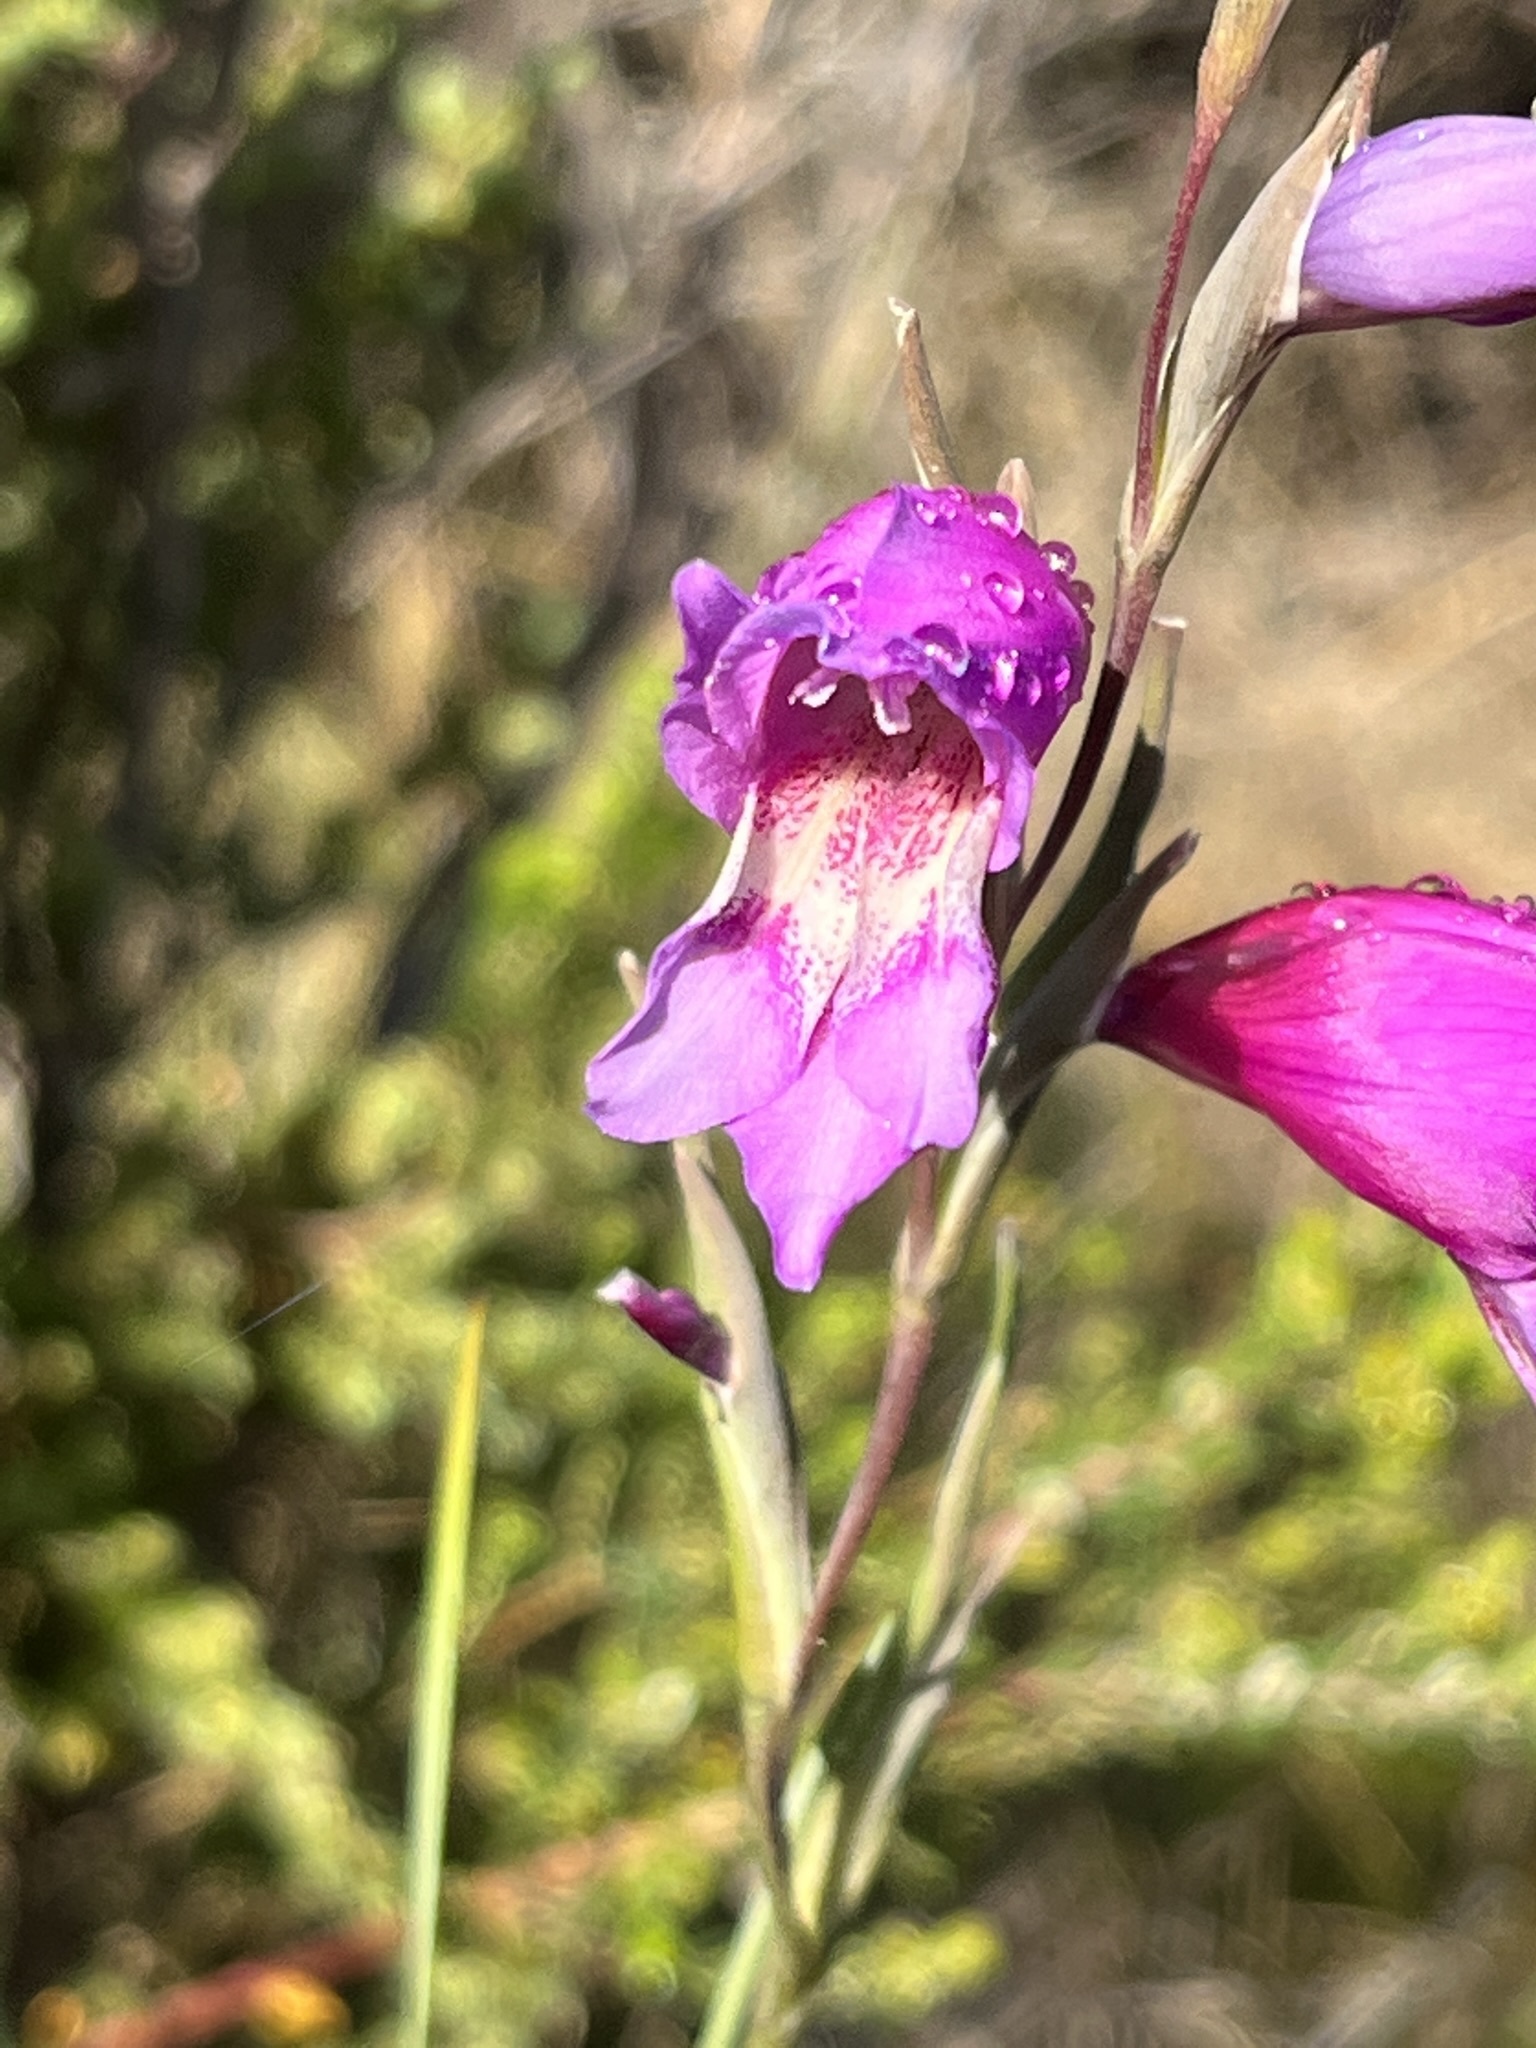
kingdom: Plantae
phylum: Tracheophyta
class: Liliopsida
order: Asparagales
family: Iridaceae
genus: Gladiolus
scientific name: Gladiolus carinatus
